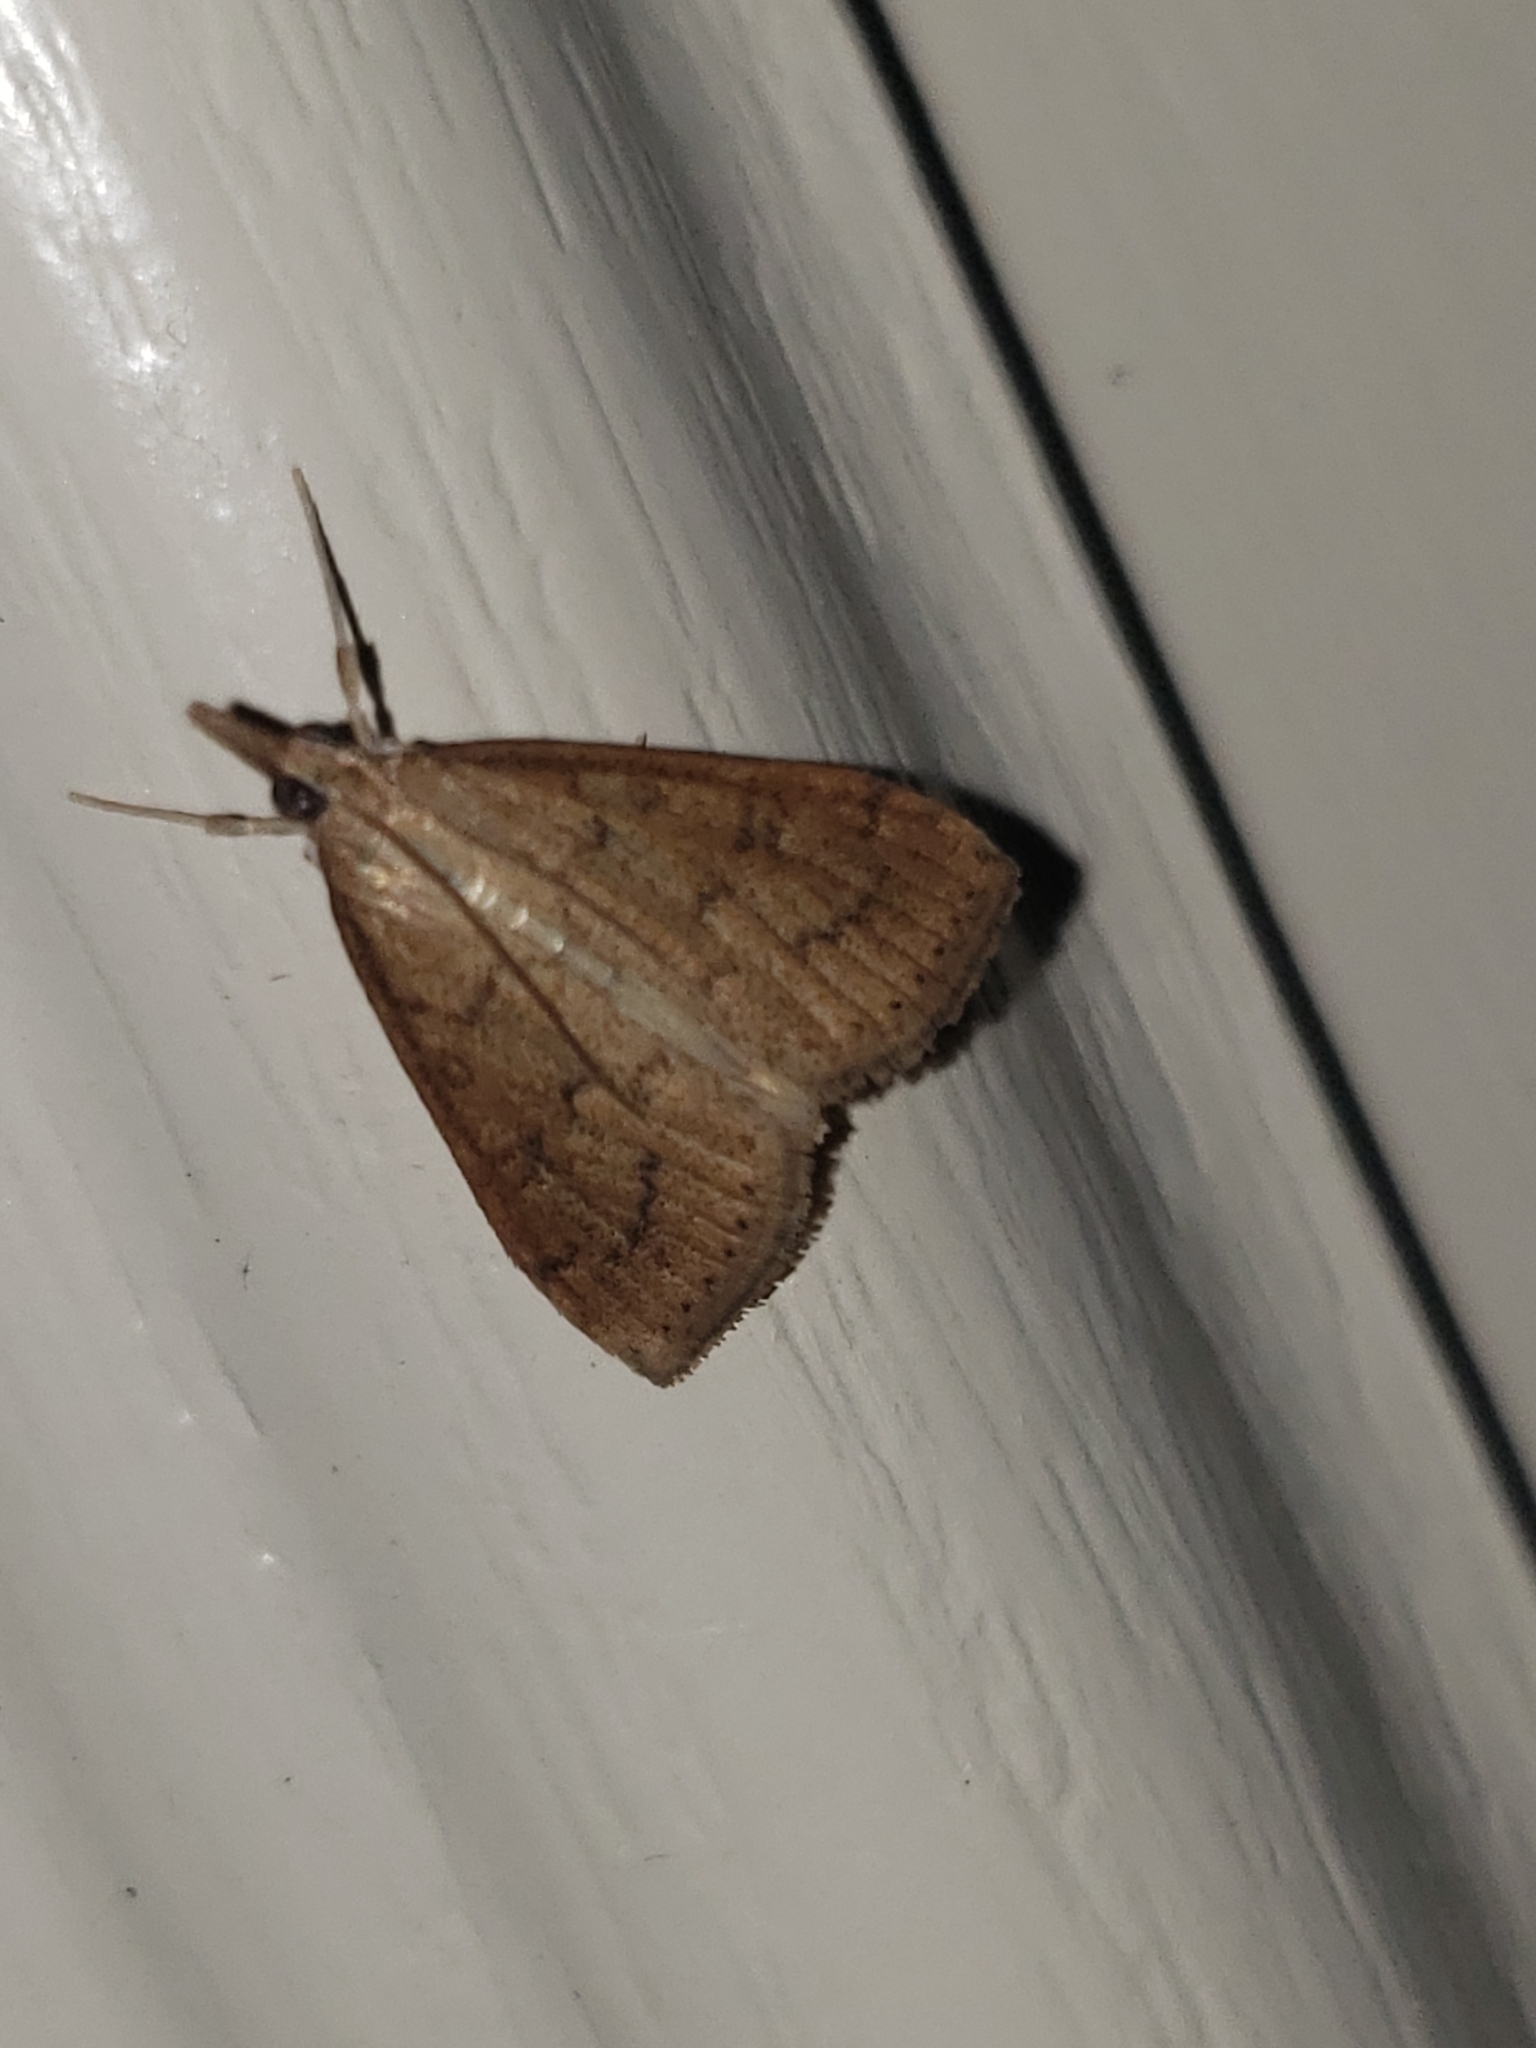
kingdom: Animalia
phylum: Arthropoda
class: Insecta
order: Lepidoptera
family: Crambidae
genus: Udea
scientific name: Udea rubigalis
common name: Celery leaftier moth
